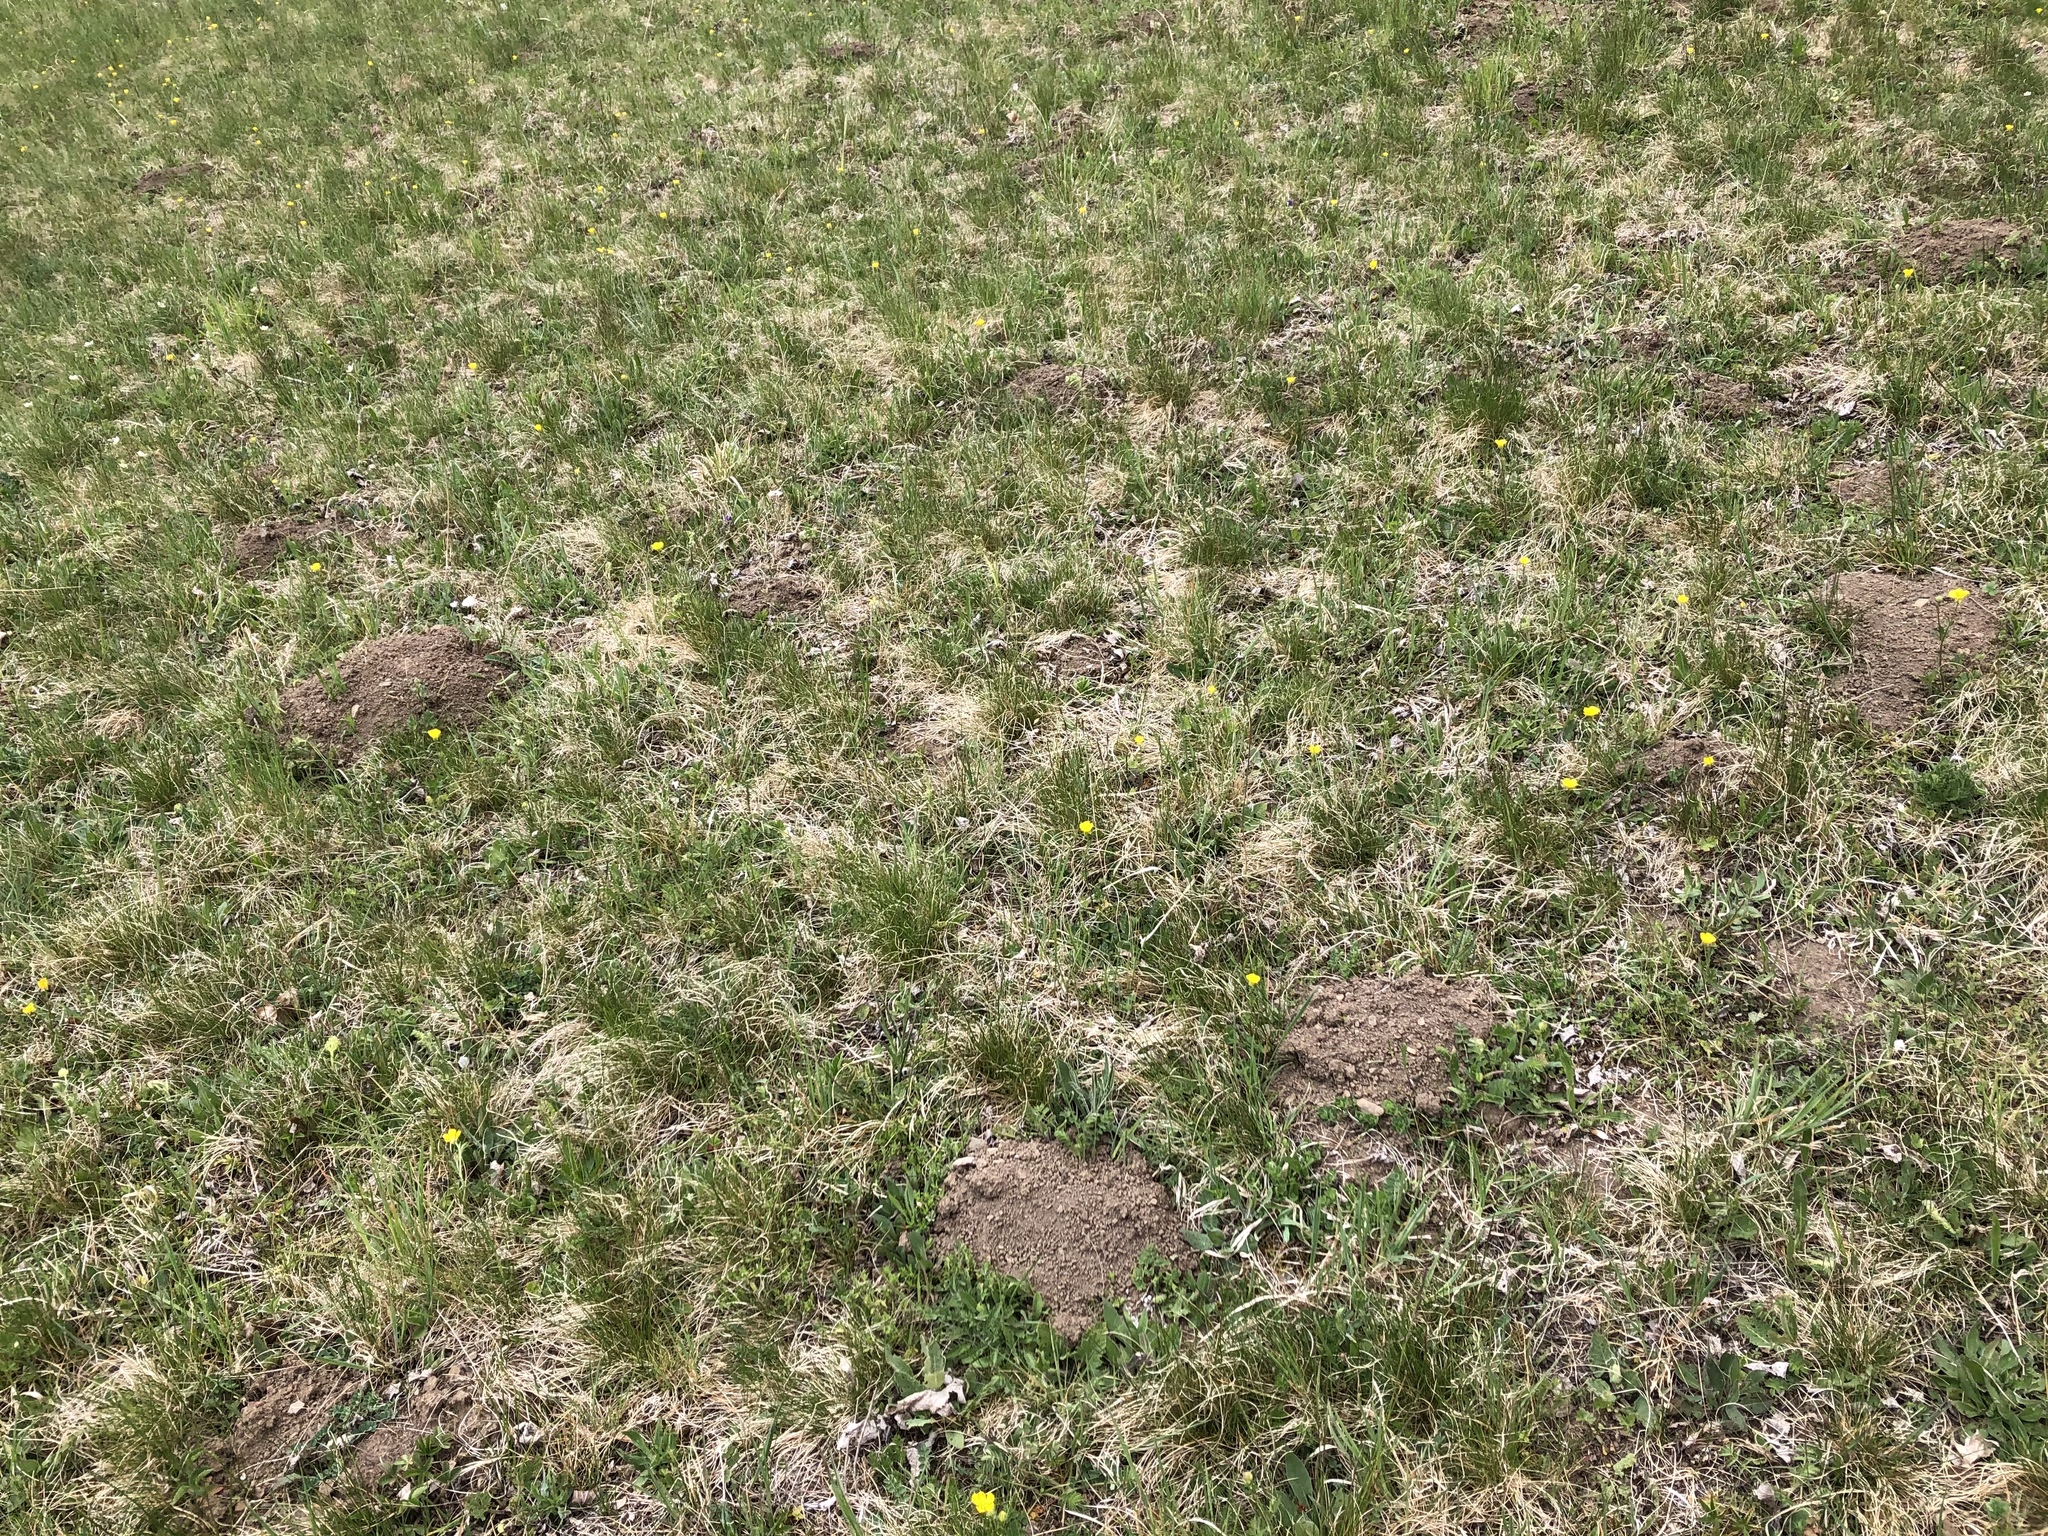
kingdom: Animalia
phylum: Chordata
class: Mammalia
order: Soricomorpha
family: Talpidae
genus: Talpa
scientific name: Talpa europaea
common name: European mole
